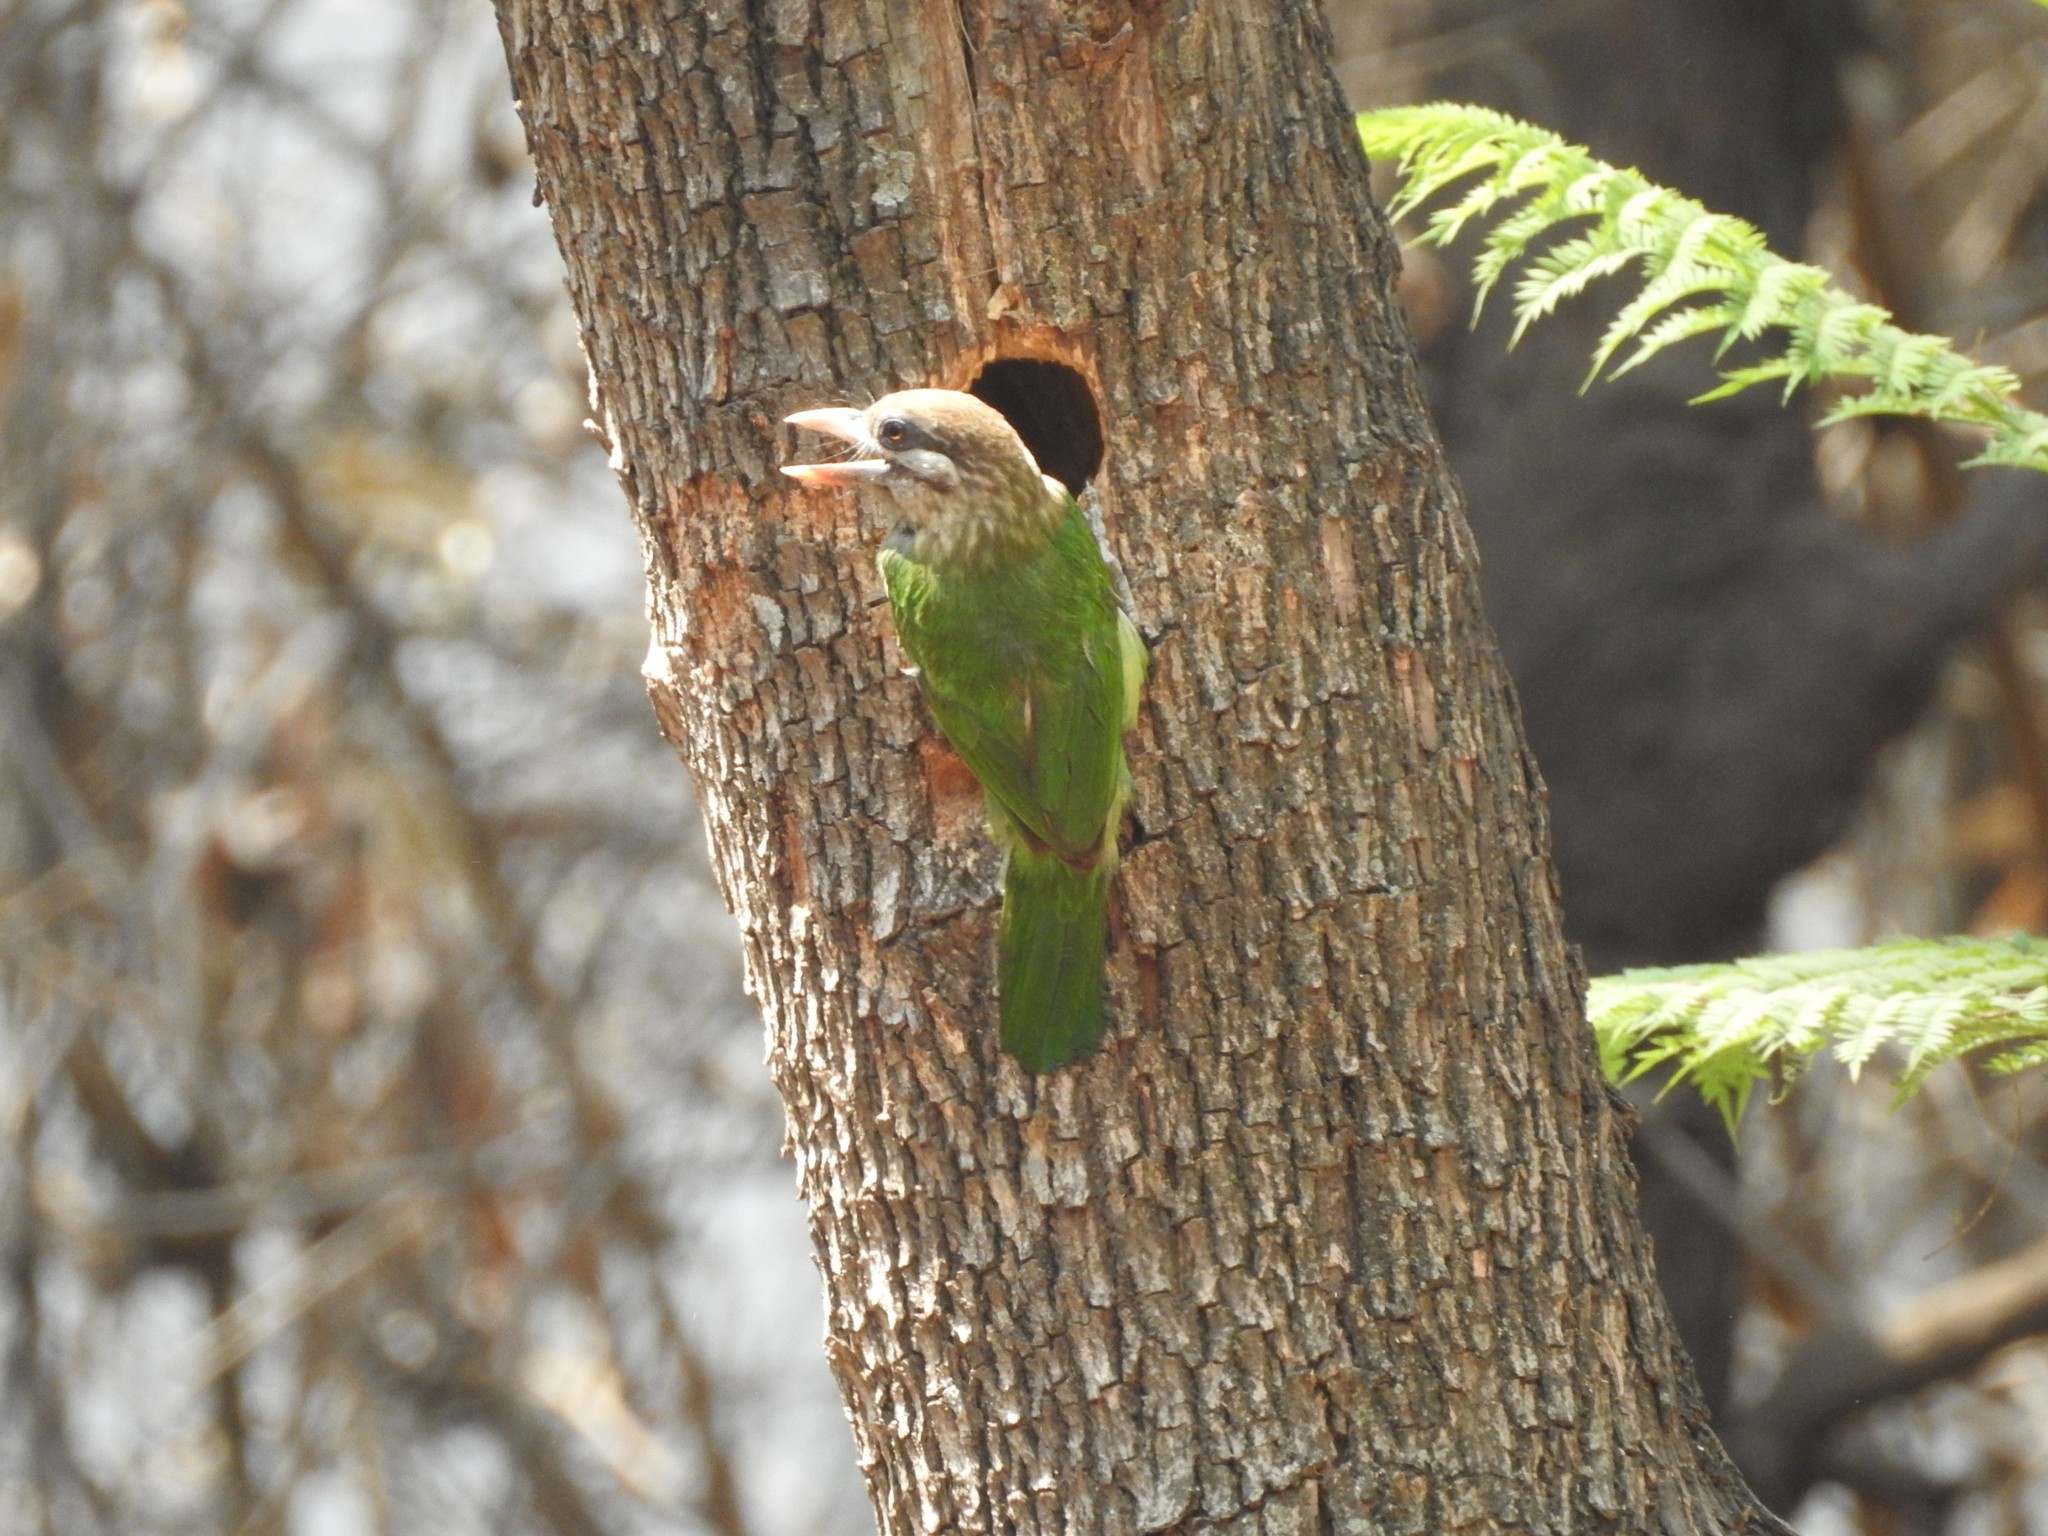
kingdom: Animalia
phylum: Chordata
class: Aves
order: Piciformes
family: Megalaimidae
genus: Psilopogon
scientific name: Psilopogon viridis
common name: White-cheeked barbet
